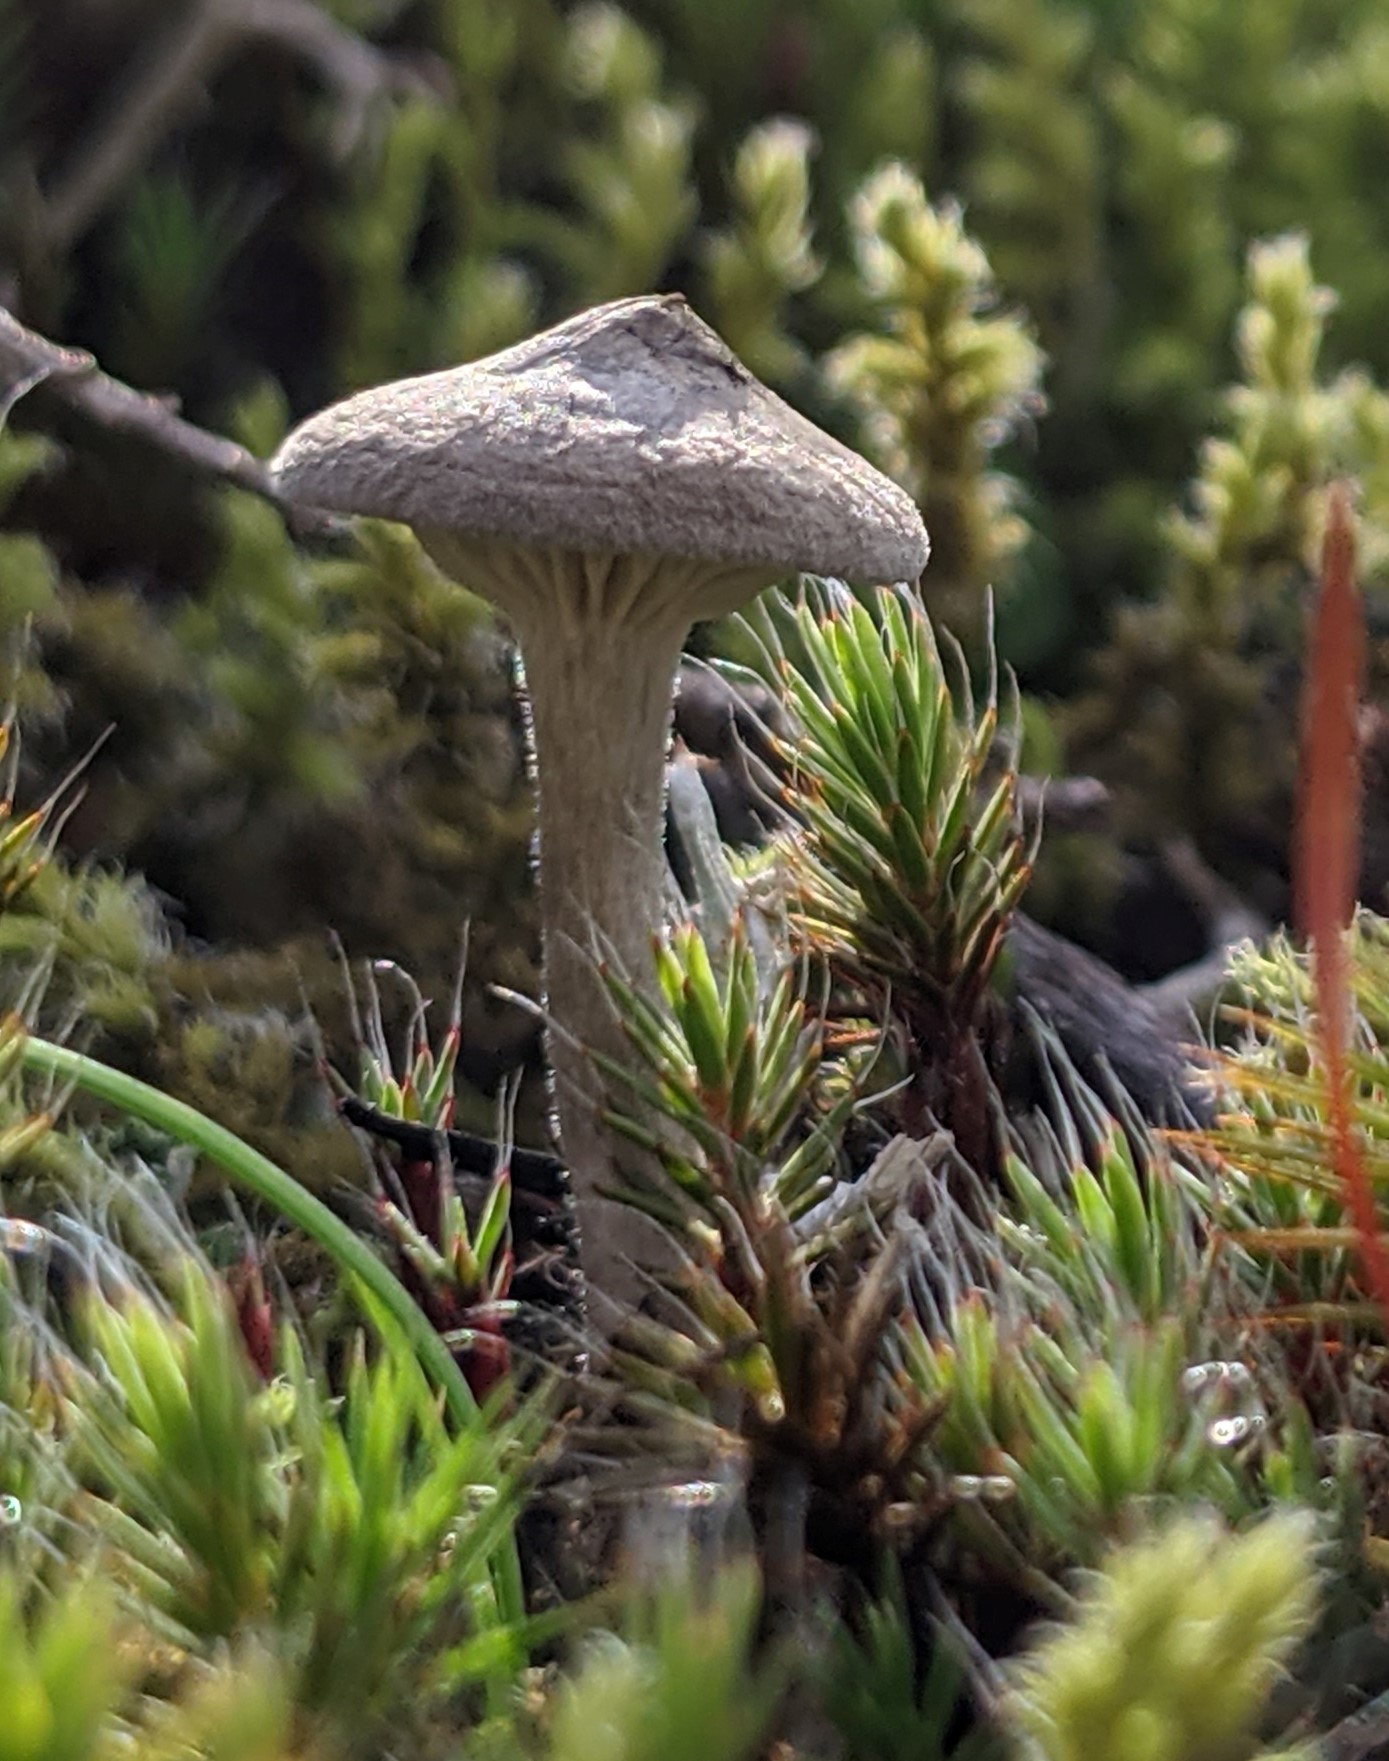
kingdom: Fungi
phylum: Basidiomycota
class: Agaricomycetes
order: Agaricales
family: Hygrophoraceae
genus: Cantharellula
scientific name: Cantharellula umbonata
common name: The humpback
